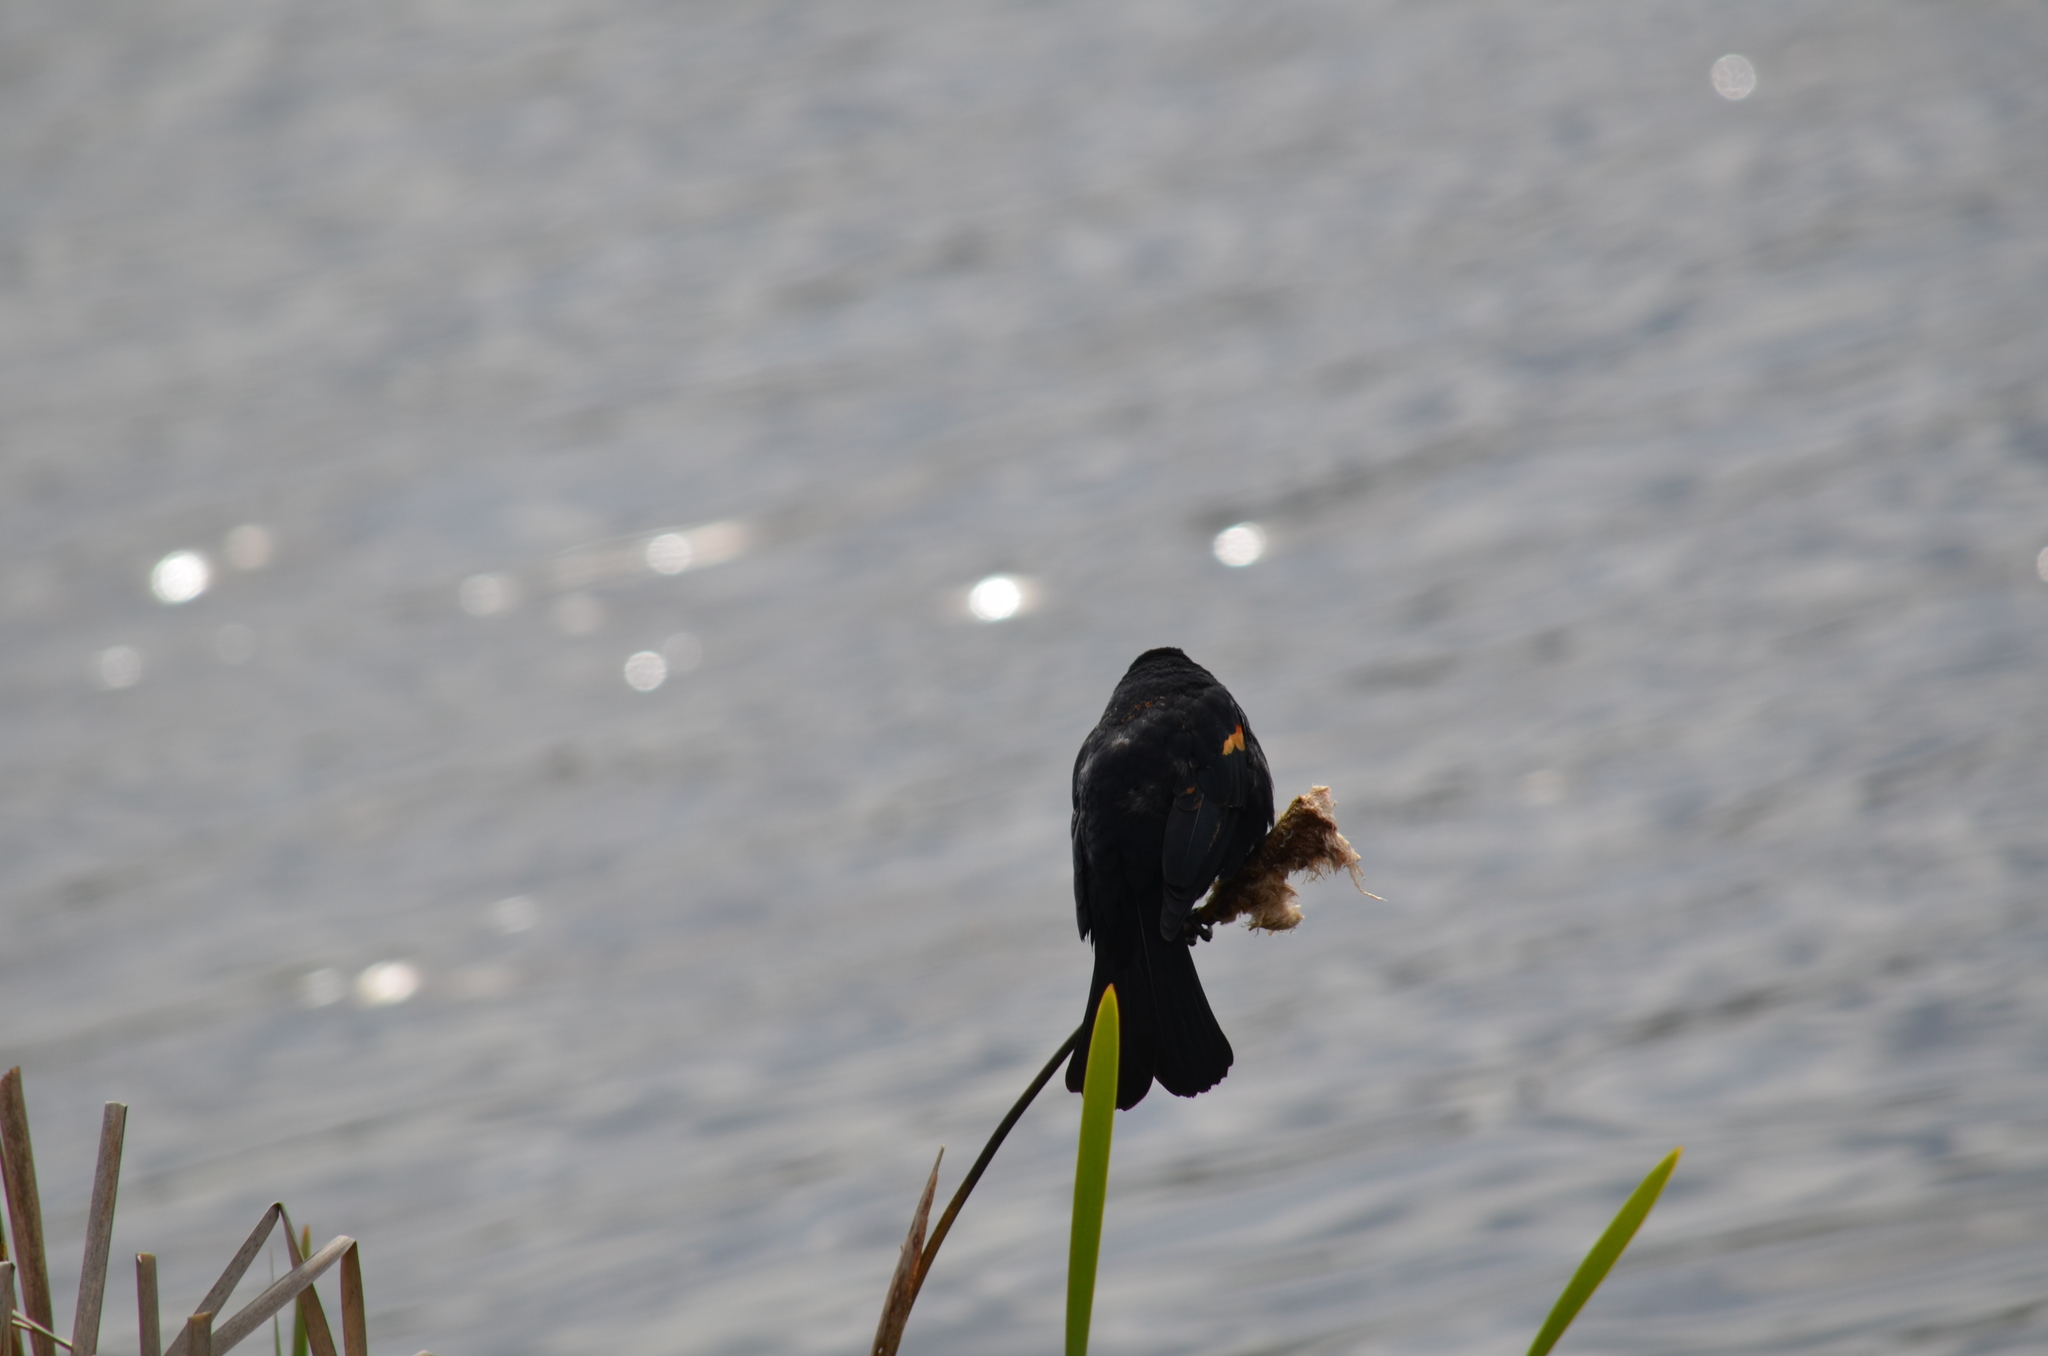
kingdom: Animalia
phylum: Chordata
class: Aves
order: Passeriformes
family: Icteridae
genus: Agelaius
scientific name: Agelaius phoeniceus
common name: Red-winged blackbird
